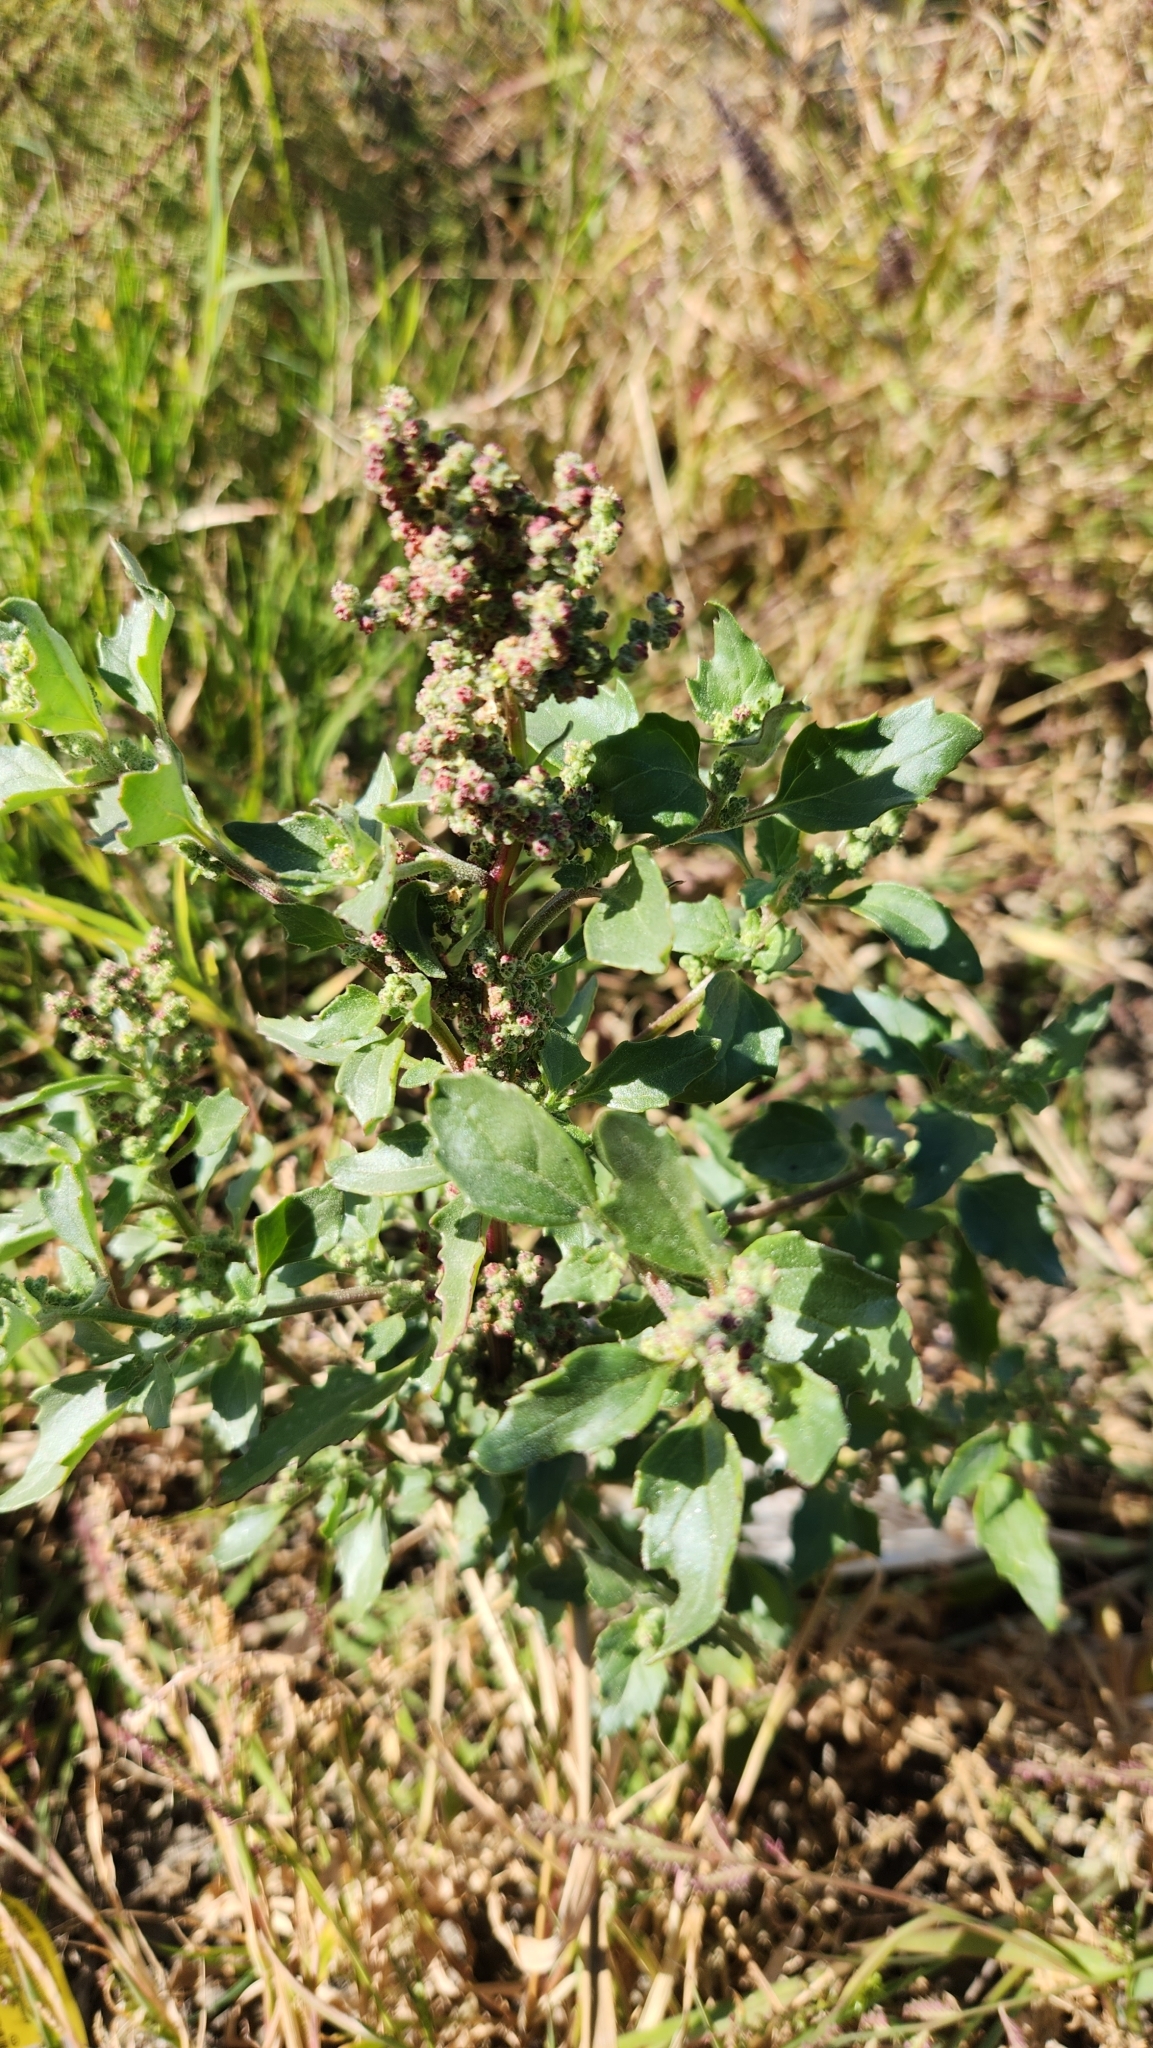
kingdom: Plantae
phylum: Tracheophyta
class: Magnoliopsida
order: Caryophyllales
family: Amaranthaceae
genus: Chenopodiastrum
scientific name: Chenopodiastrum murale
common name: Sowbane
